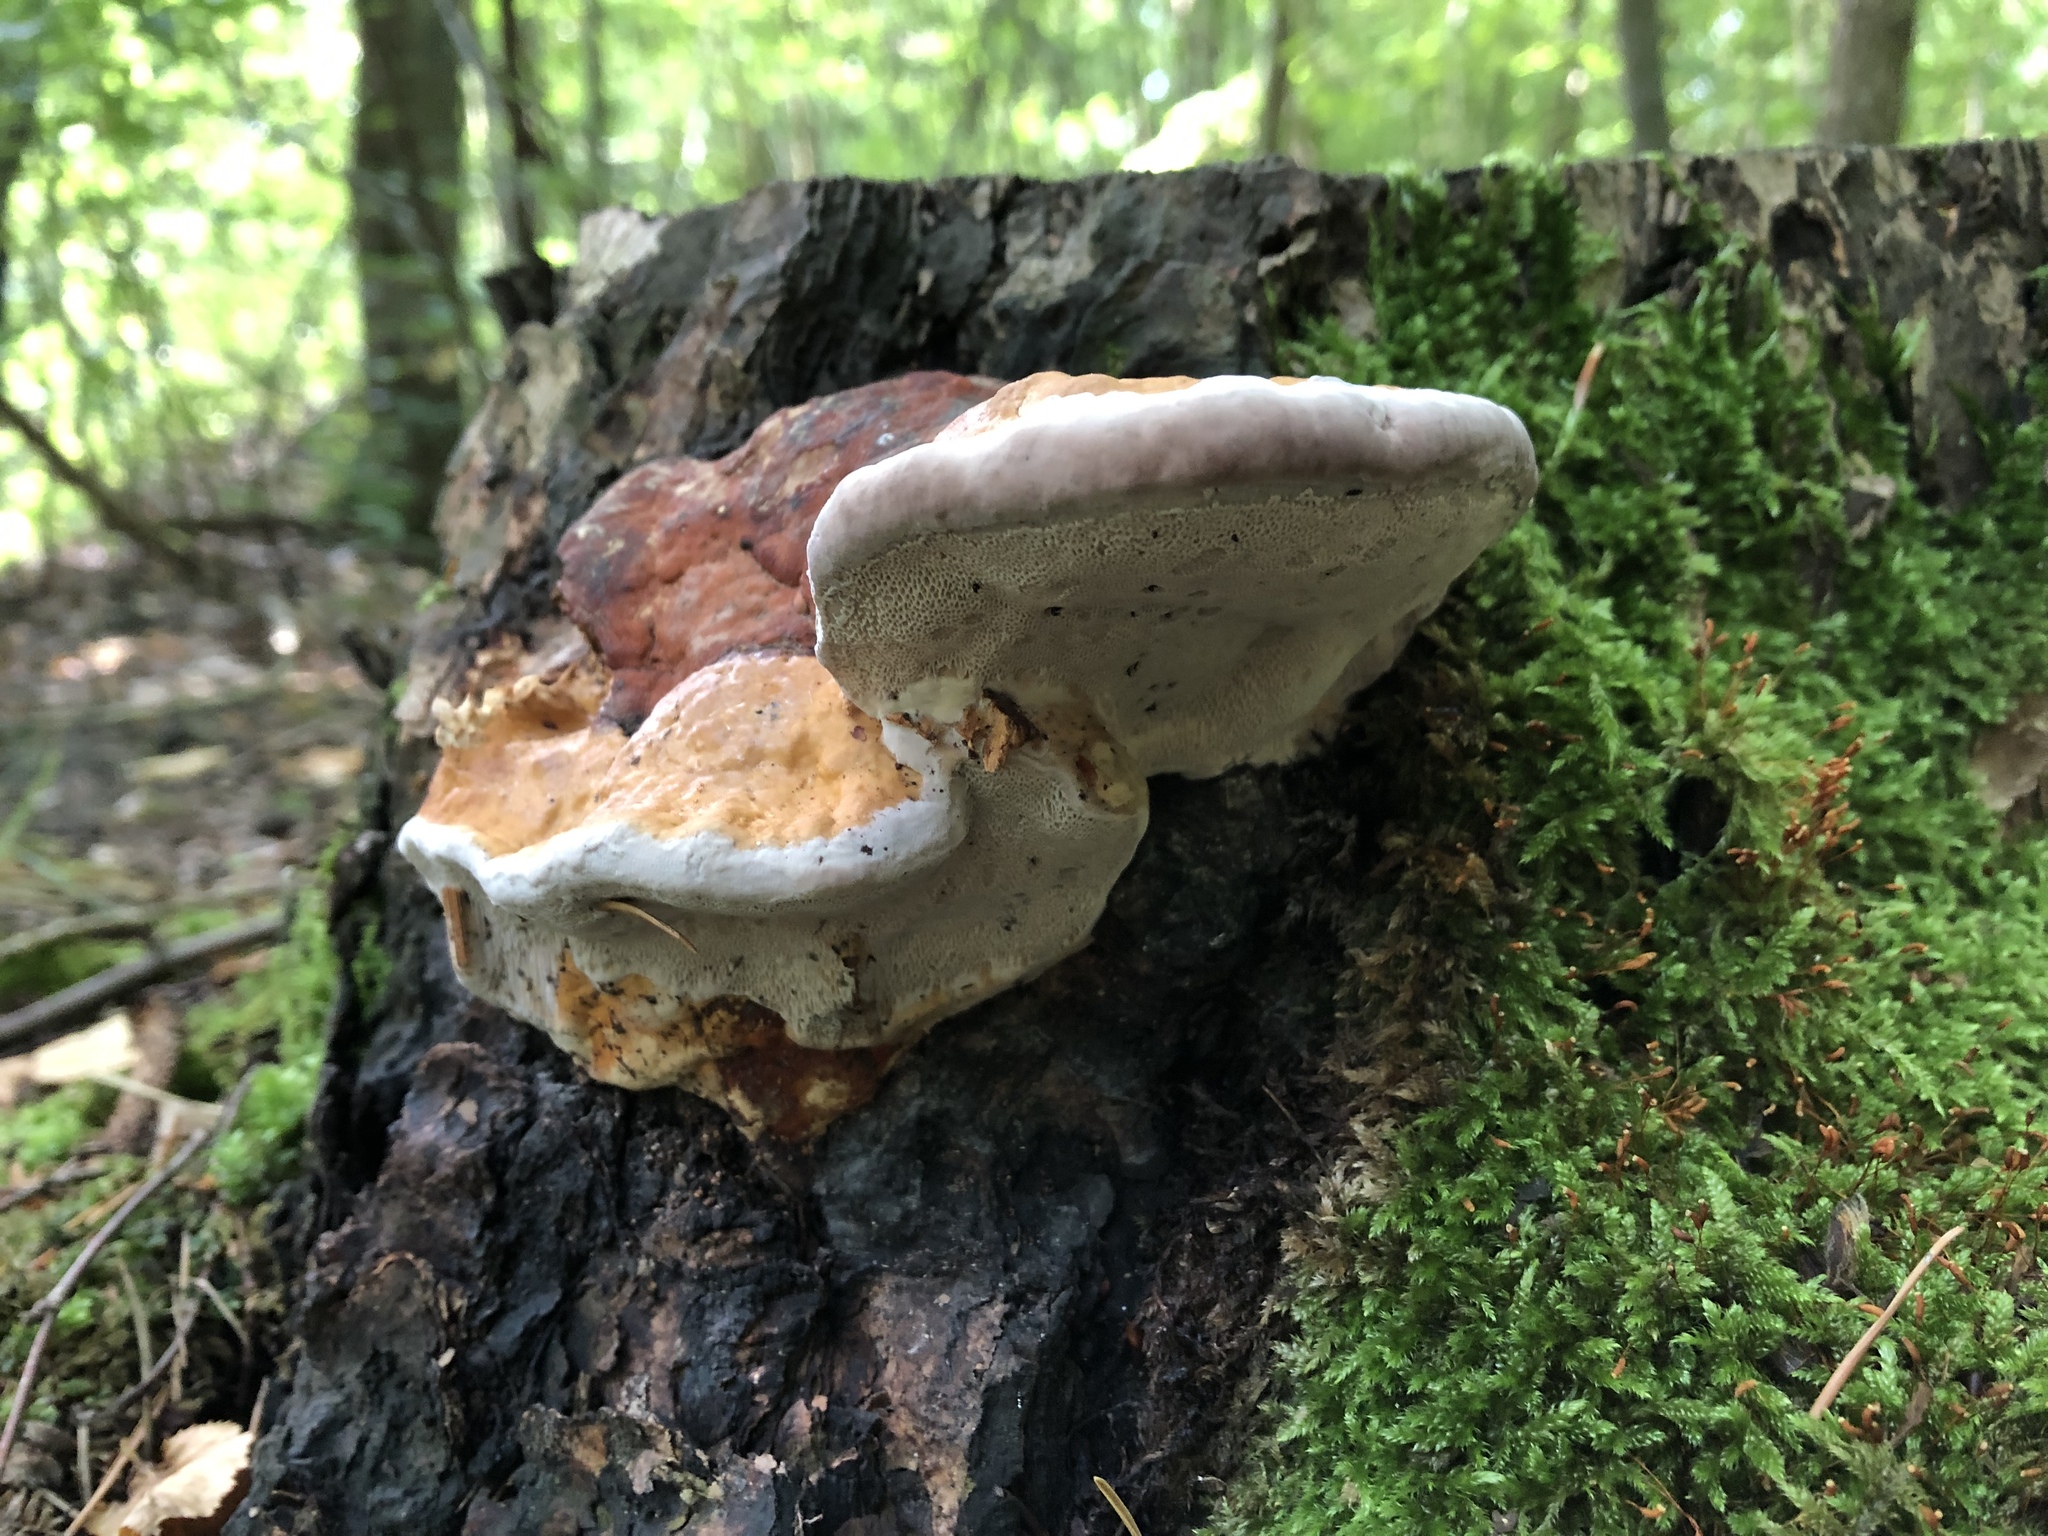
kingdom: Fungi
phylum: Basidiomycota
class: Agaricomycetes
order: Polyporales
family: Fomitopsidaceae
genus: Fomitopsis
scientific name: Fomitopsis pinicola
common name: Red-belted bracket
